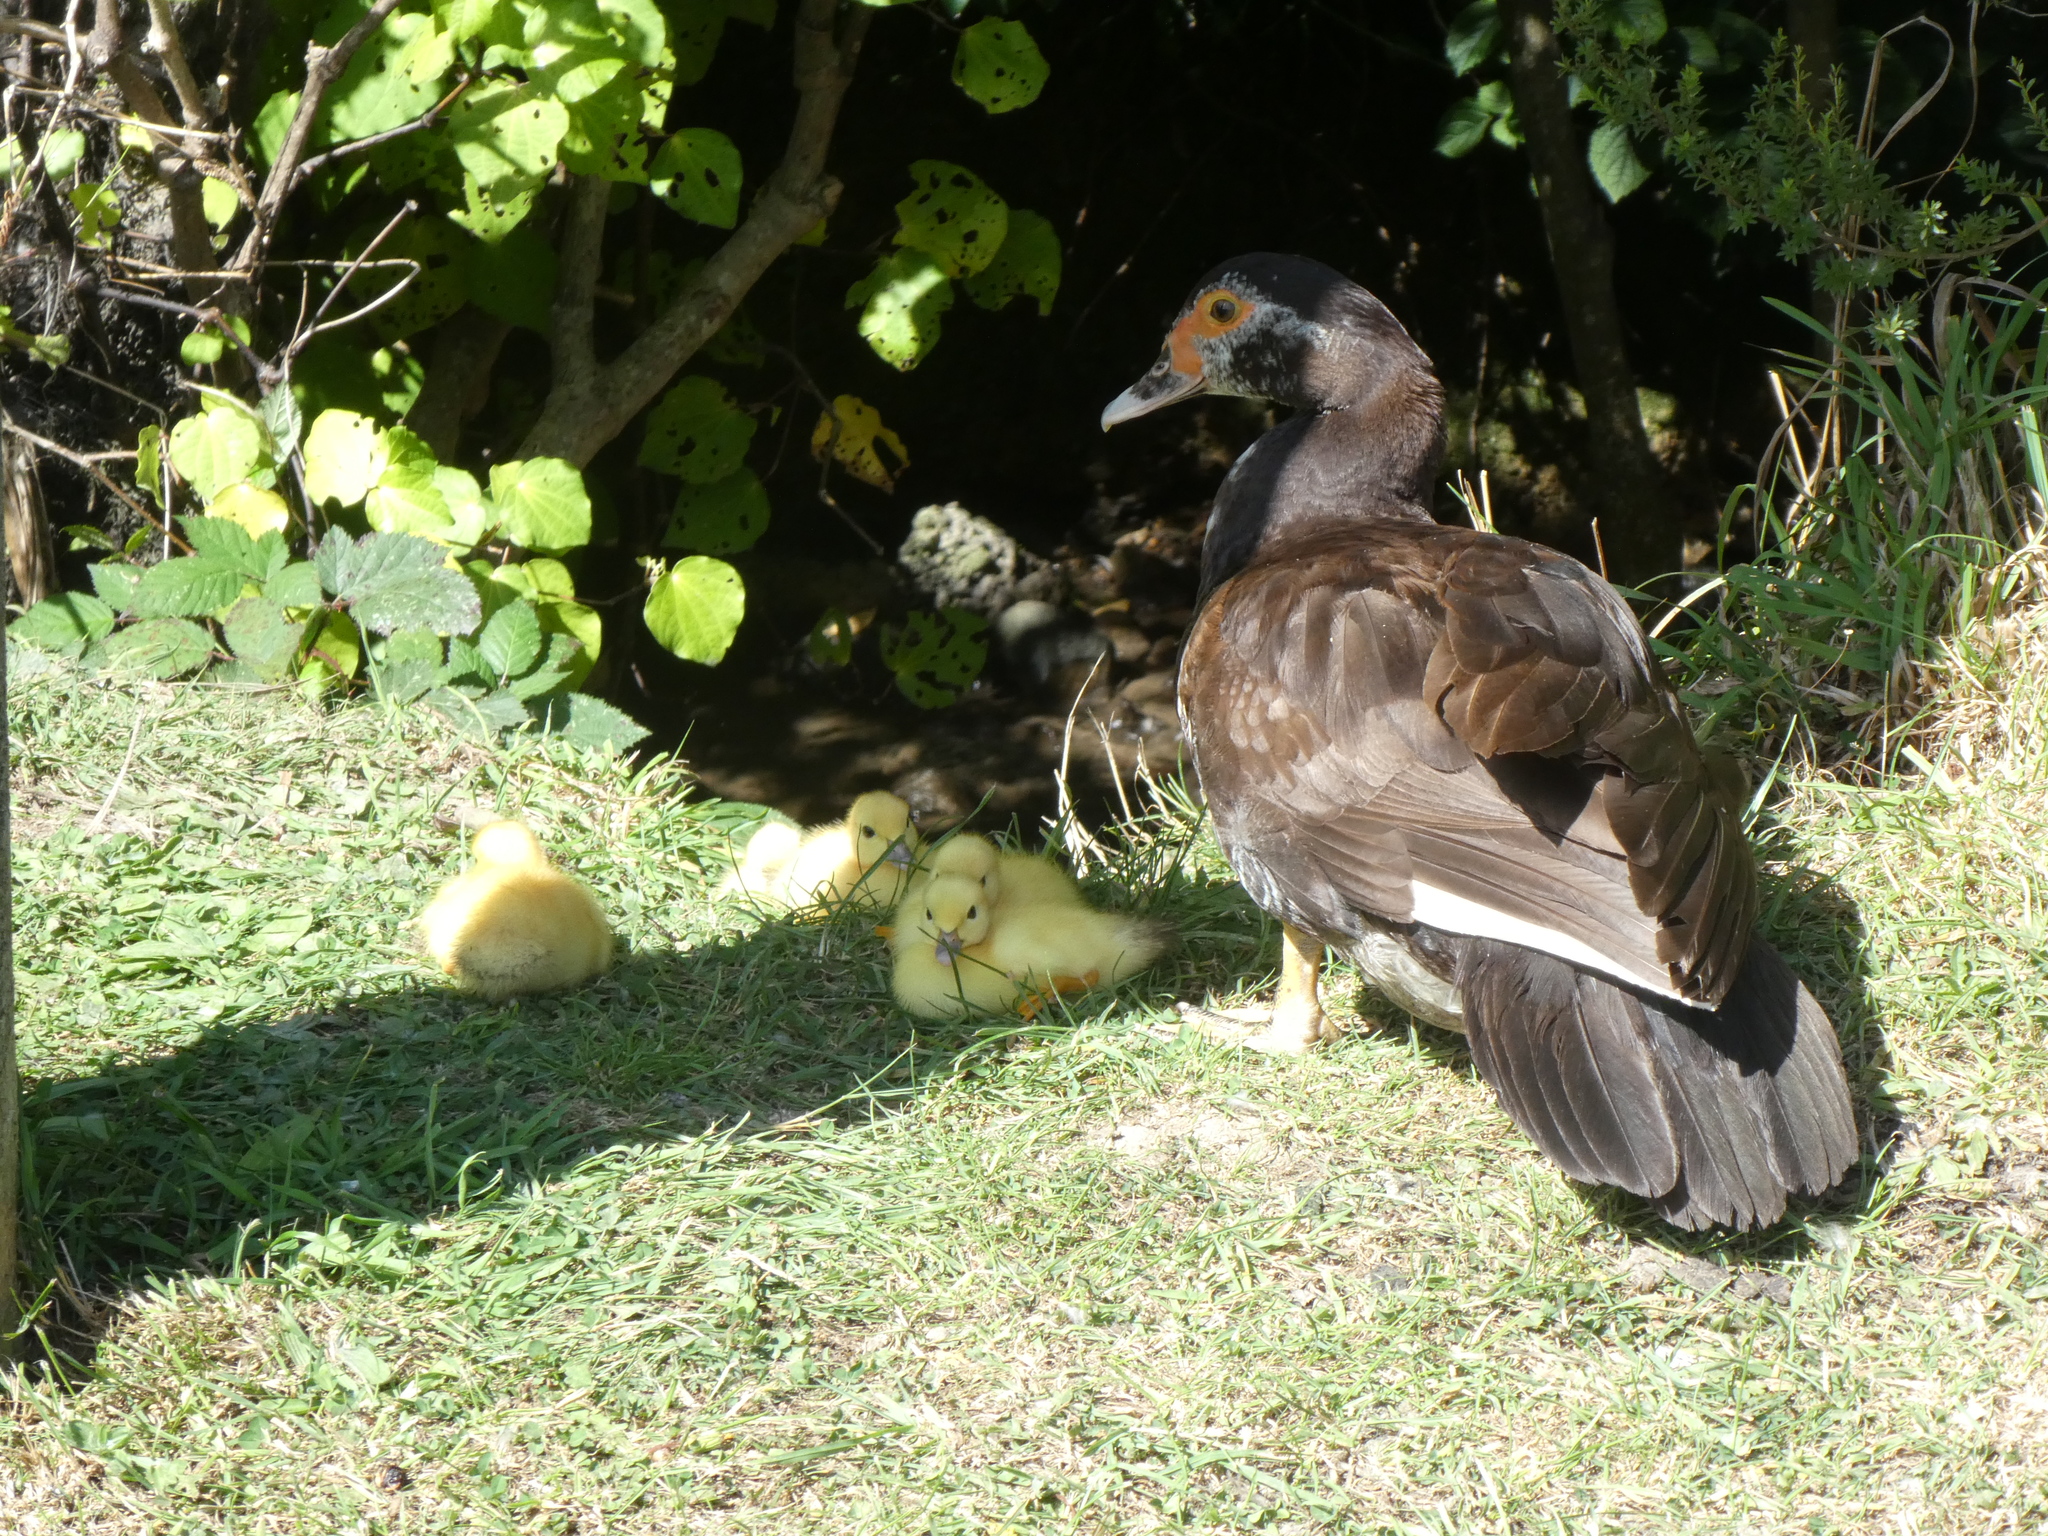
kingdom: Animalia
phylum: Chordata
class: Aves
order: Anseriformes
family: Anatidae
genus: Cairina
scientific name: Cairina moschata
